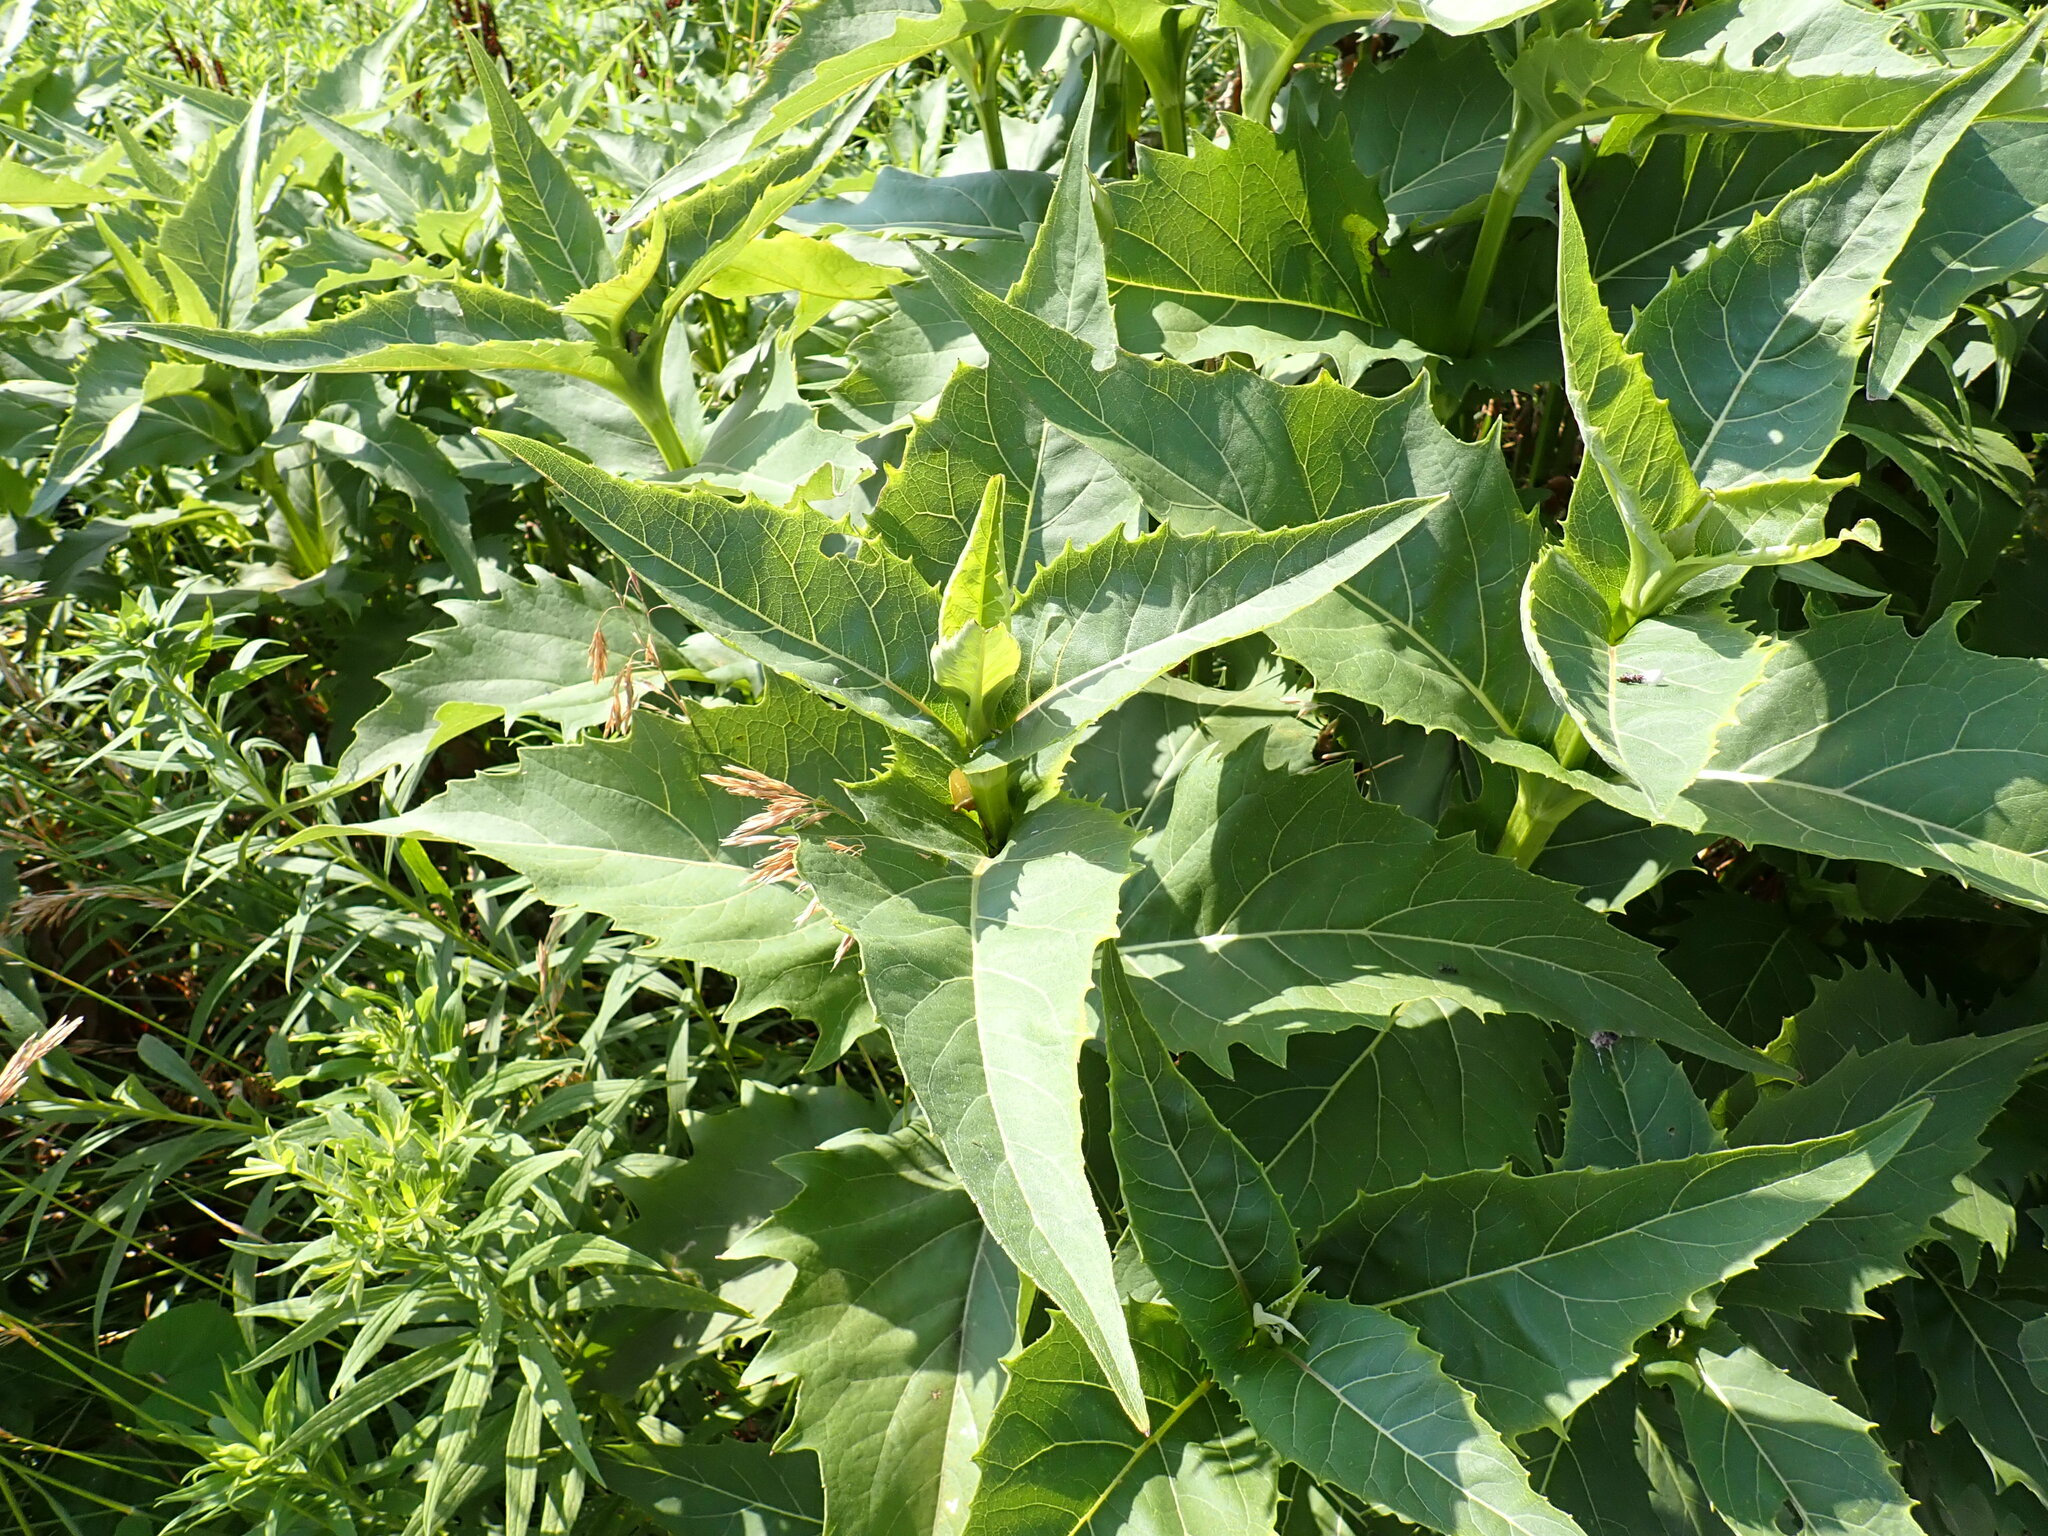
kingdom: Plantae
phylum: Tracheophyta
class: Magnoliopsida
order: Asterales
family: Asteraceae
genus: Silphium
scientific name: Silphium perfoliatum
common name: Cup-plant
